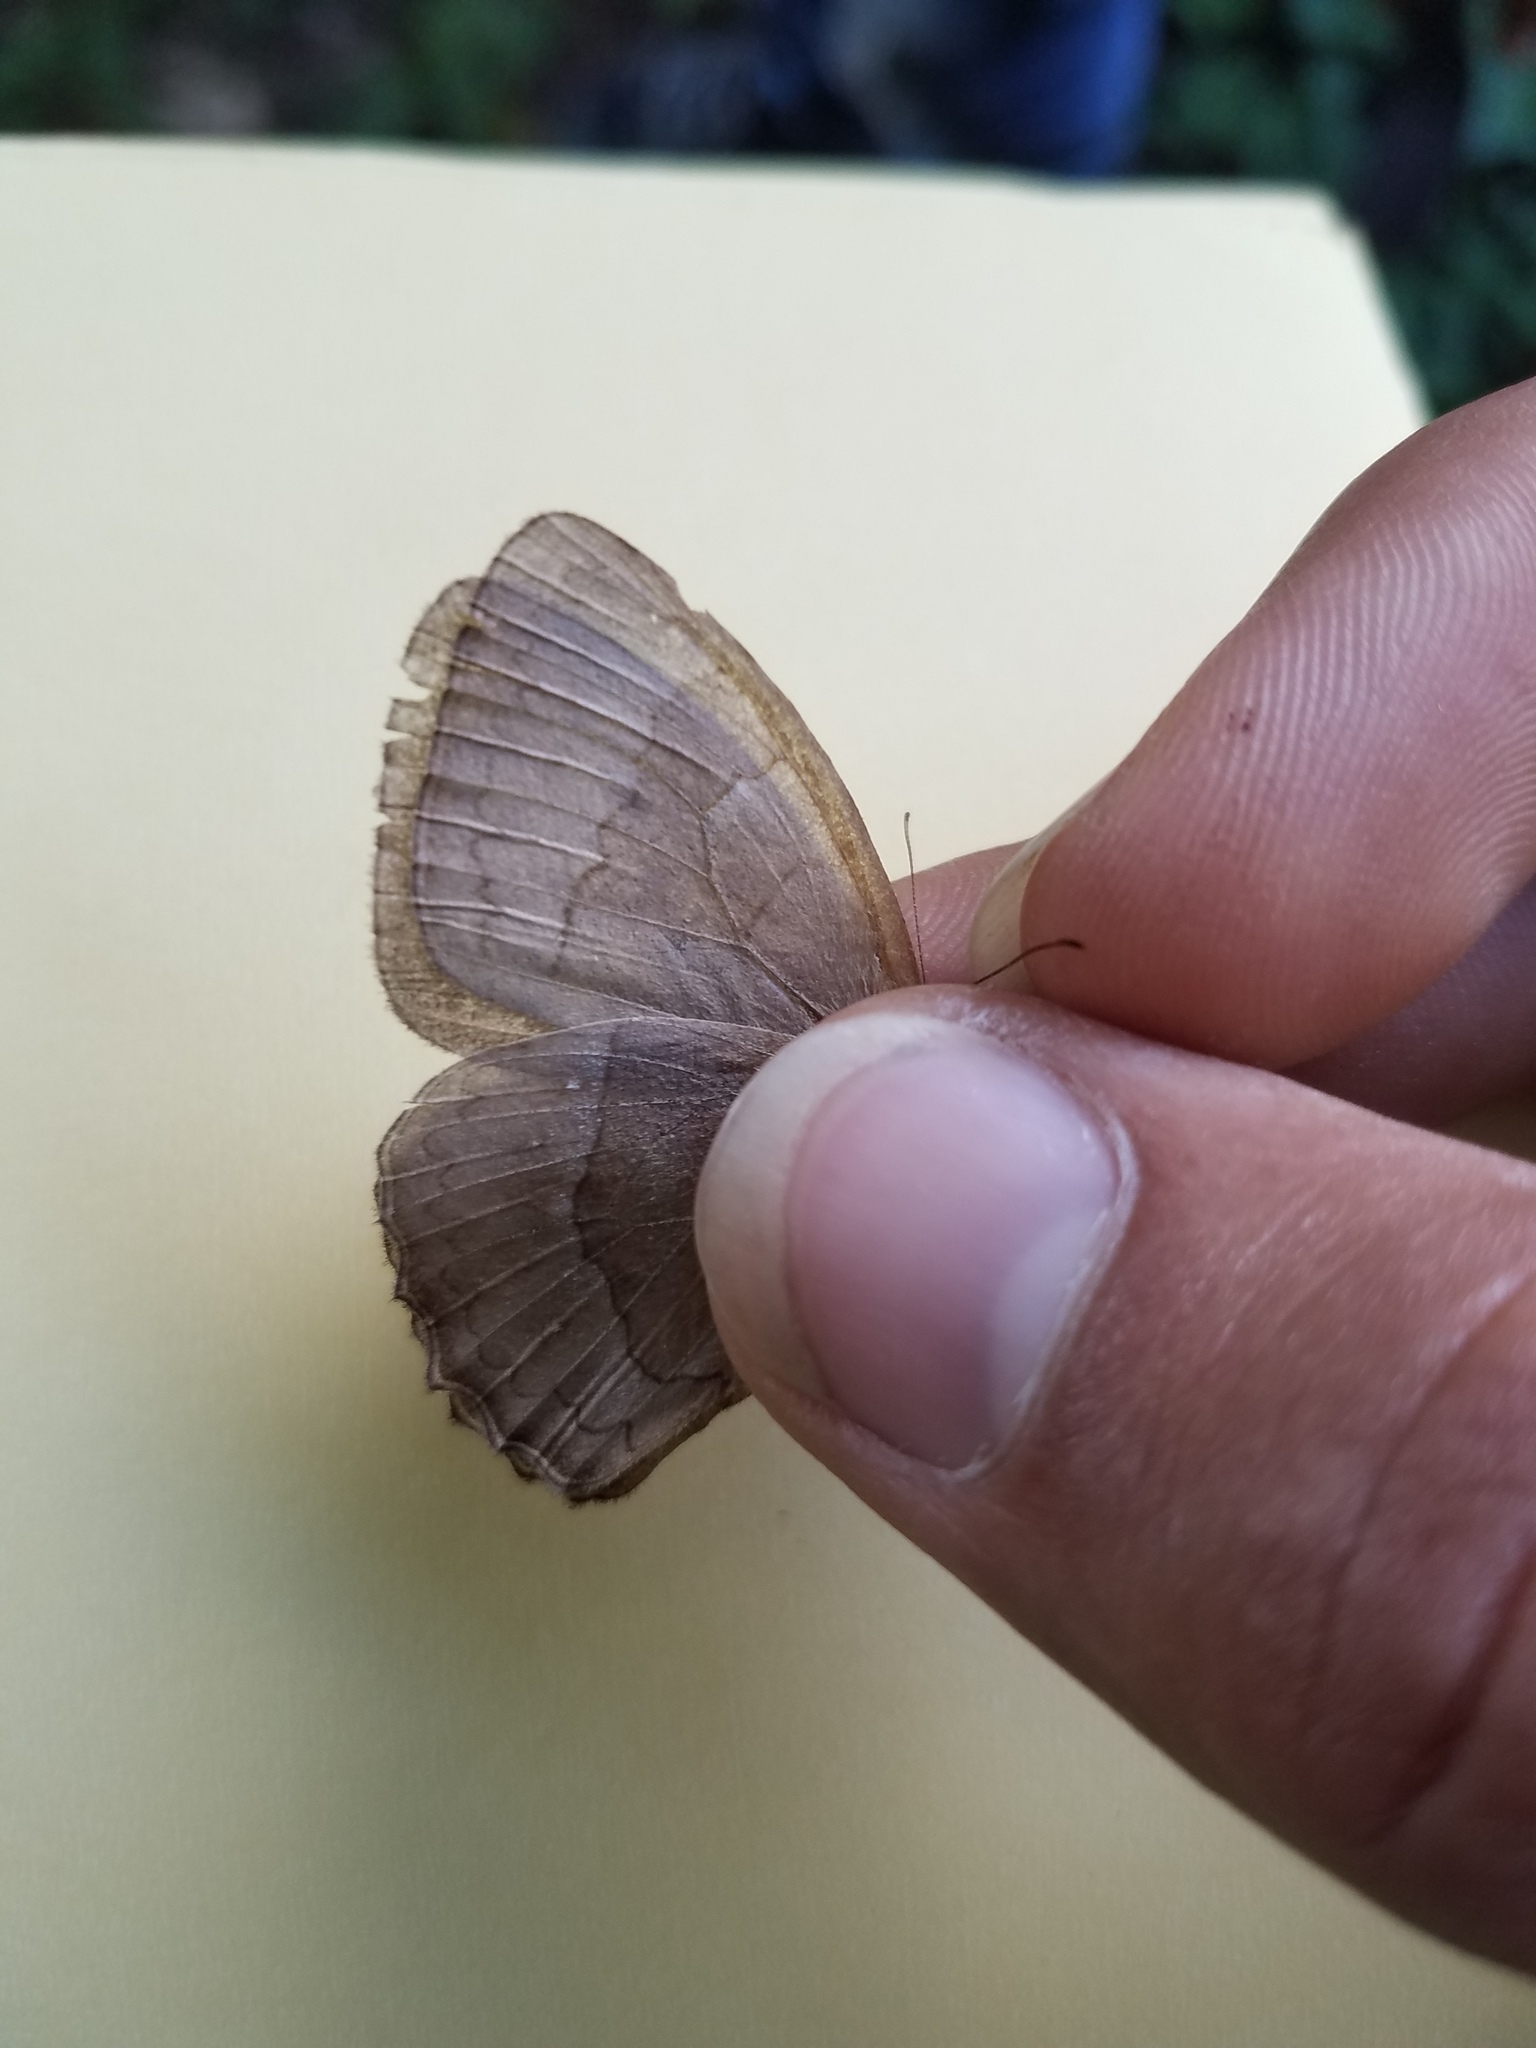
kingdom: Animalia
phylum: Arthropoda
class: Insecta
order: Lepidoptera
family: Nymphalidae
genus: Taygetina
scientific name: Taygetina kerea
